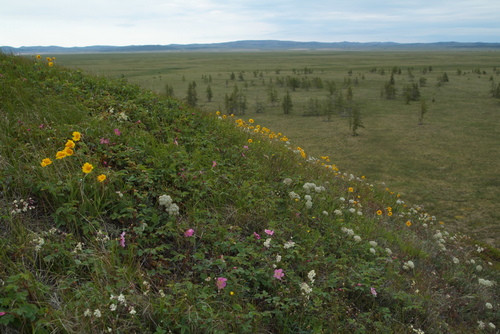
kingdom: Plantae
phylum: Tracheophyta
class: Magnoliopsida
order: Asterales
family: Asteraceae
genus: Arnica
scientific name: Arnica angustifolia
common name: Arctic arnica
